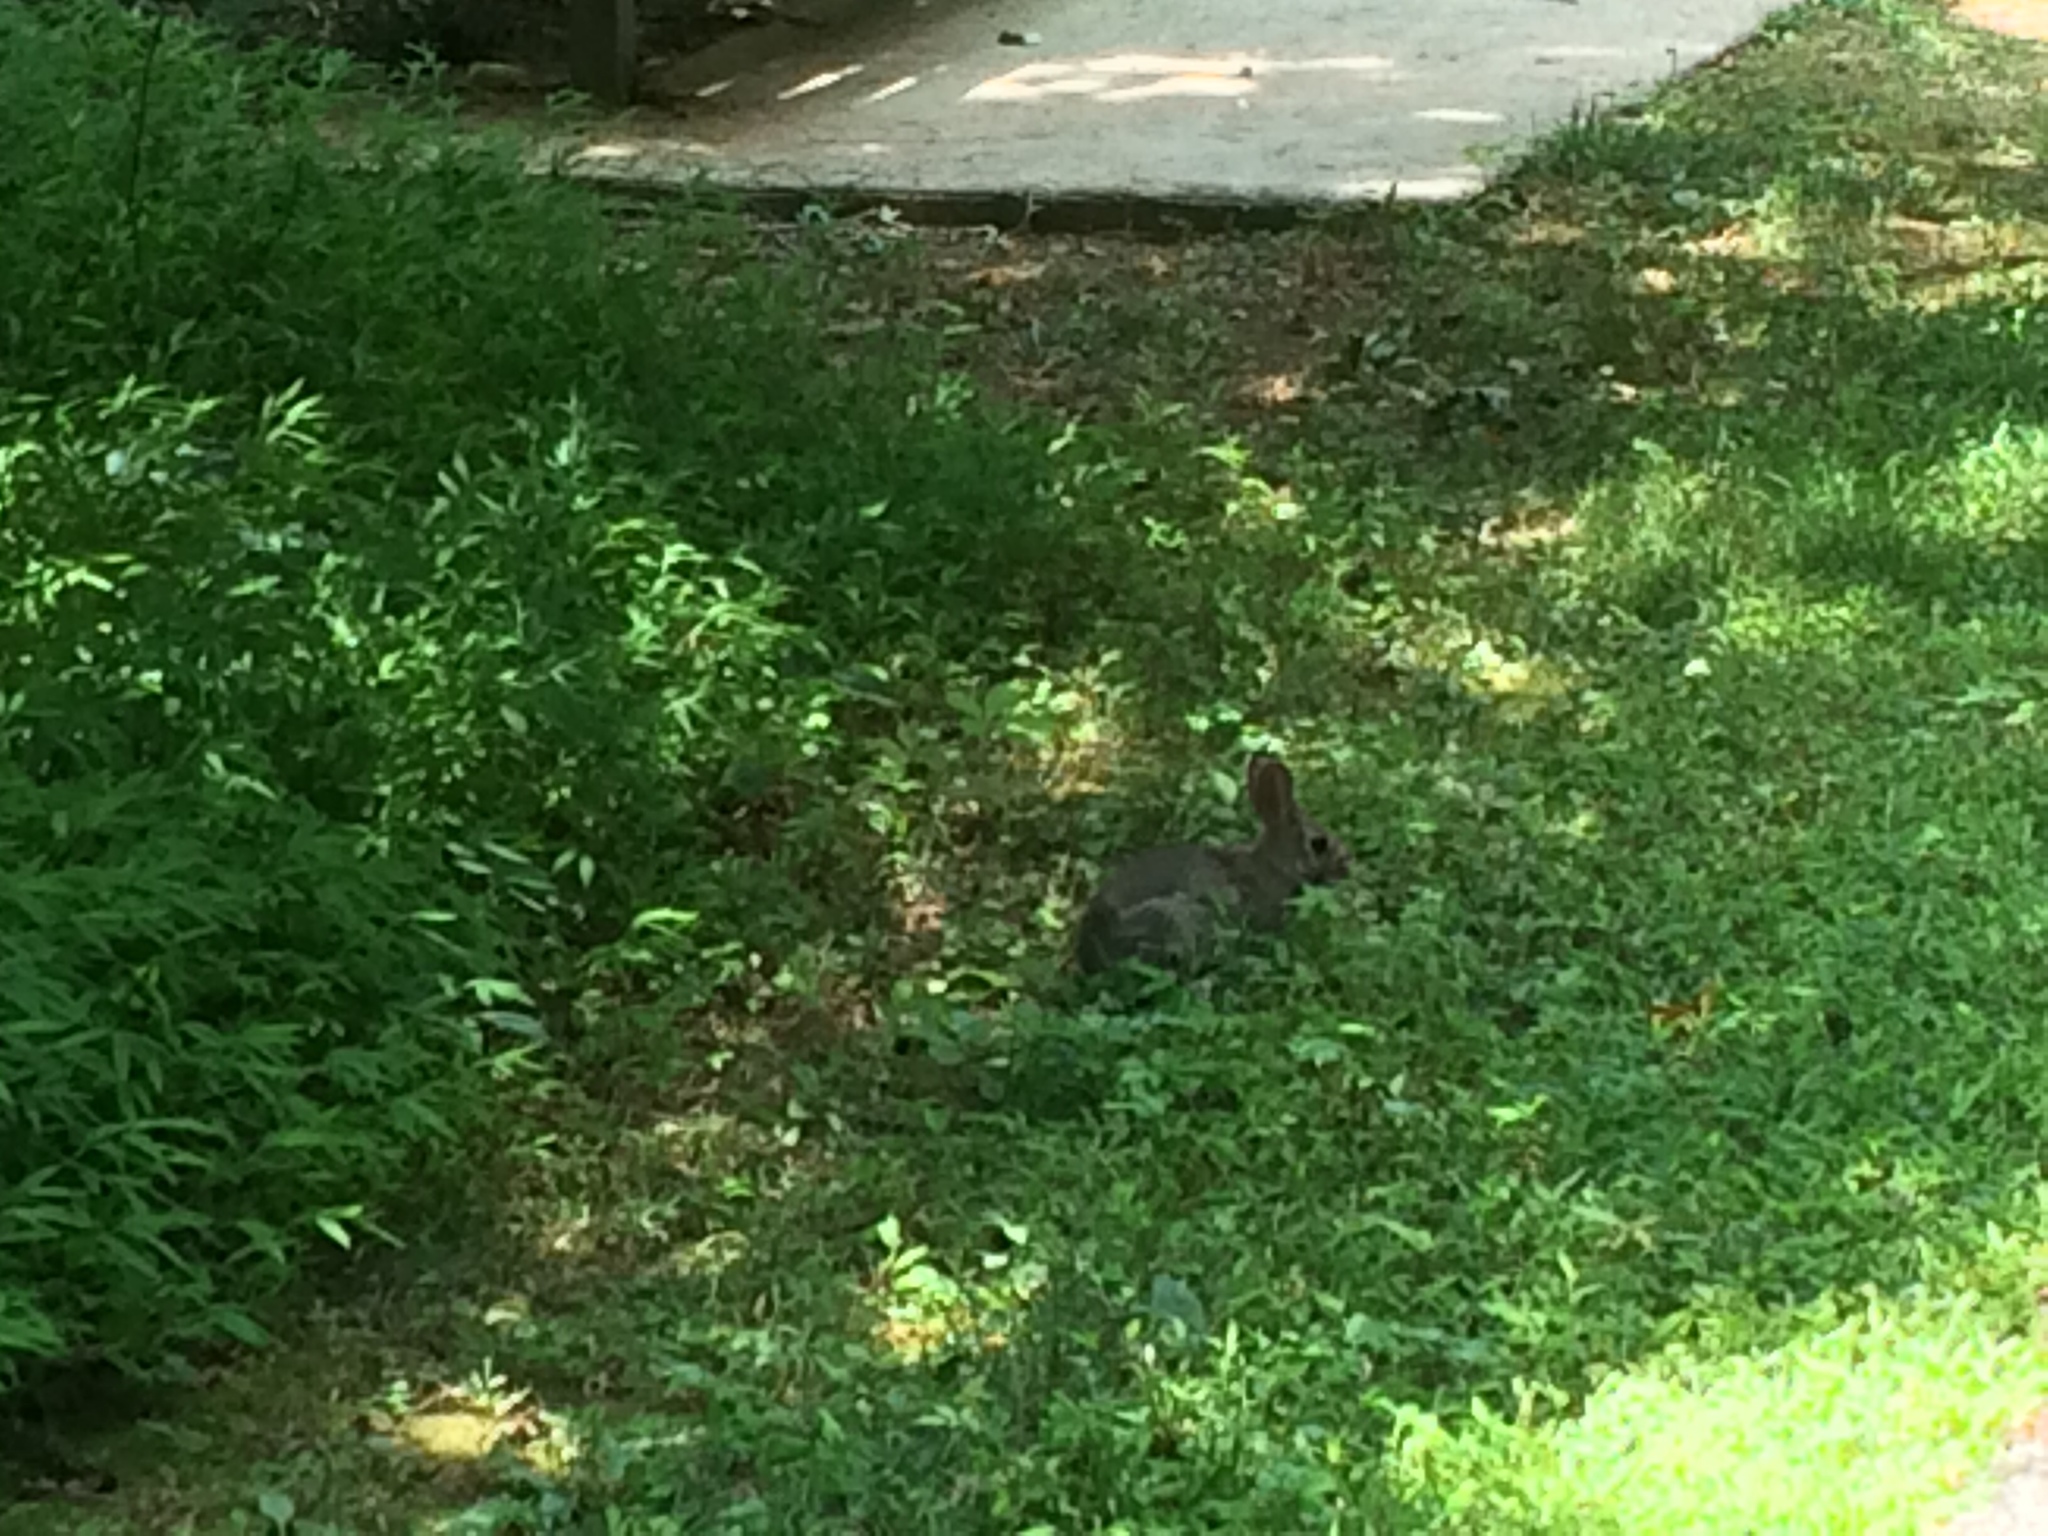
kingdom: Animalia
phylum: Chordata
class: Mammalia
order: Lagomorpha
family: Leporidae
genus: Sylvilagus
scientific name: Sylvilagus floridanus
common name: Eastern cottontail
